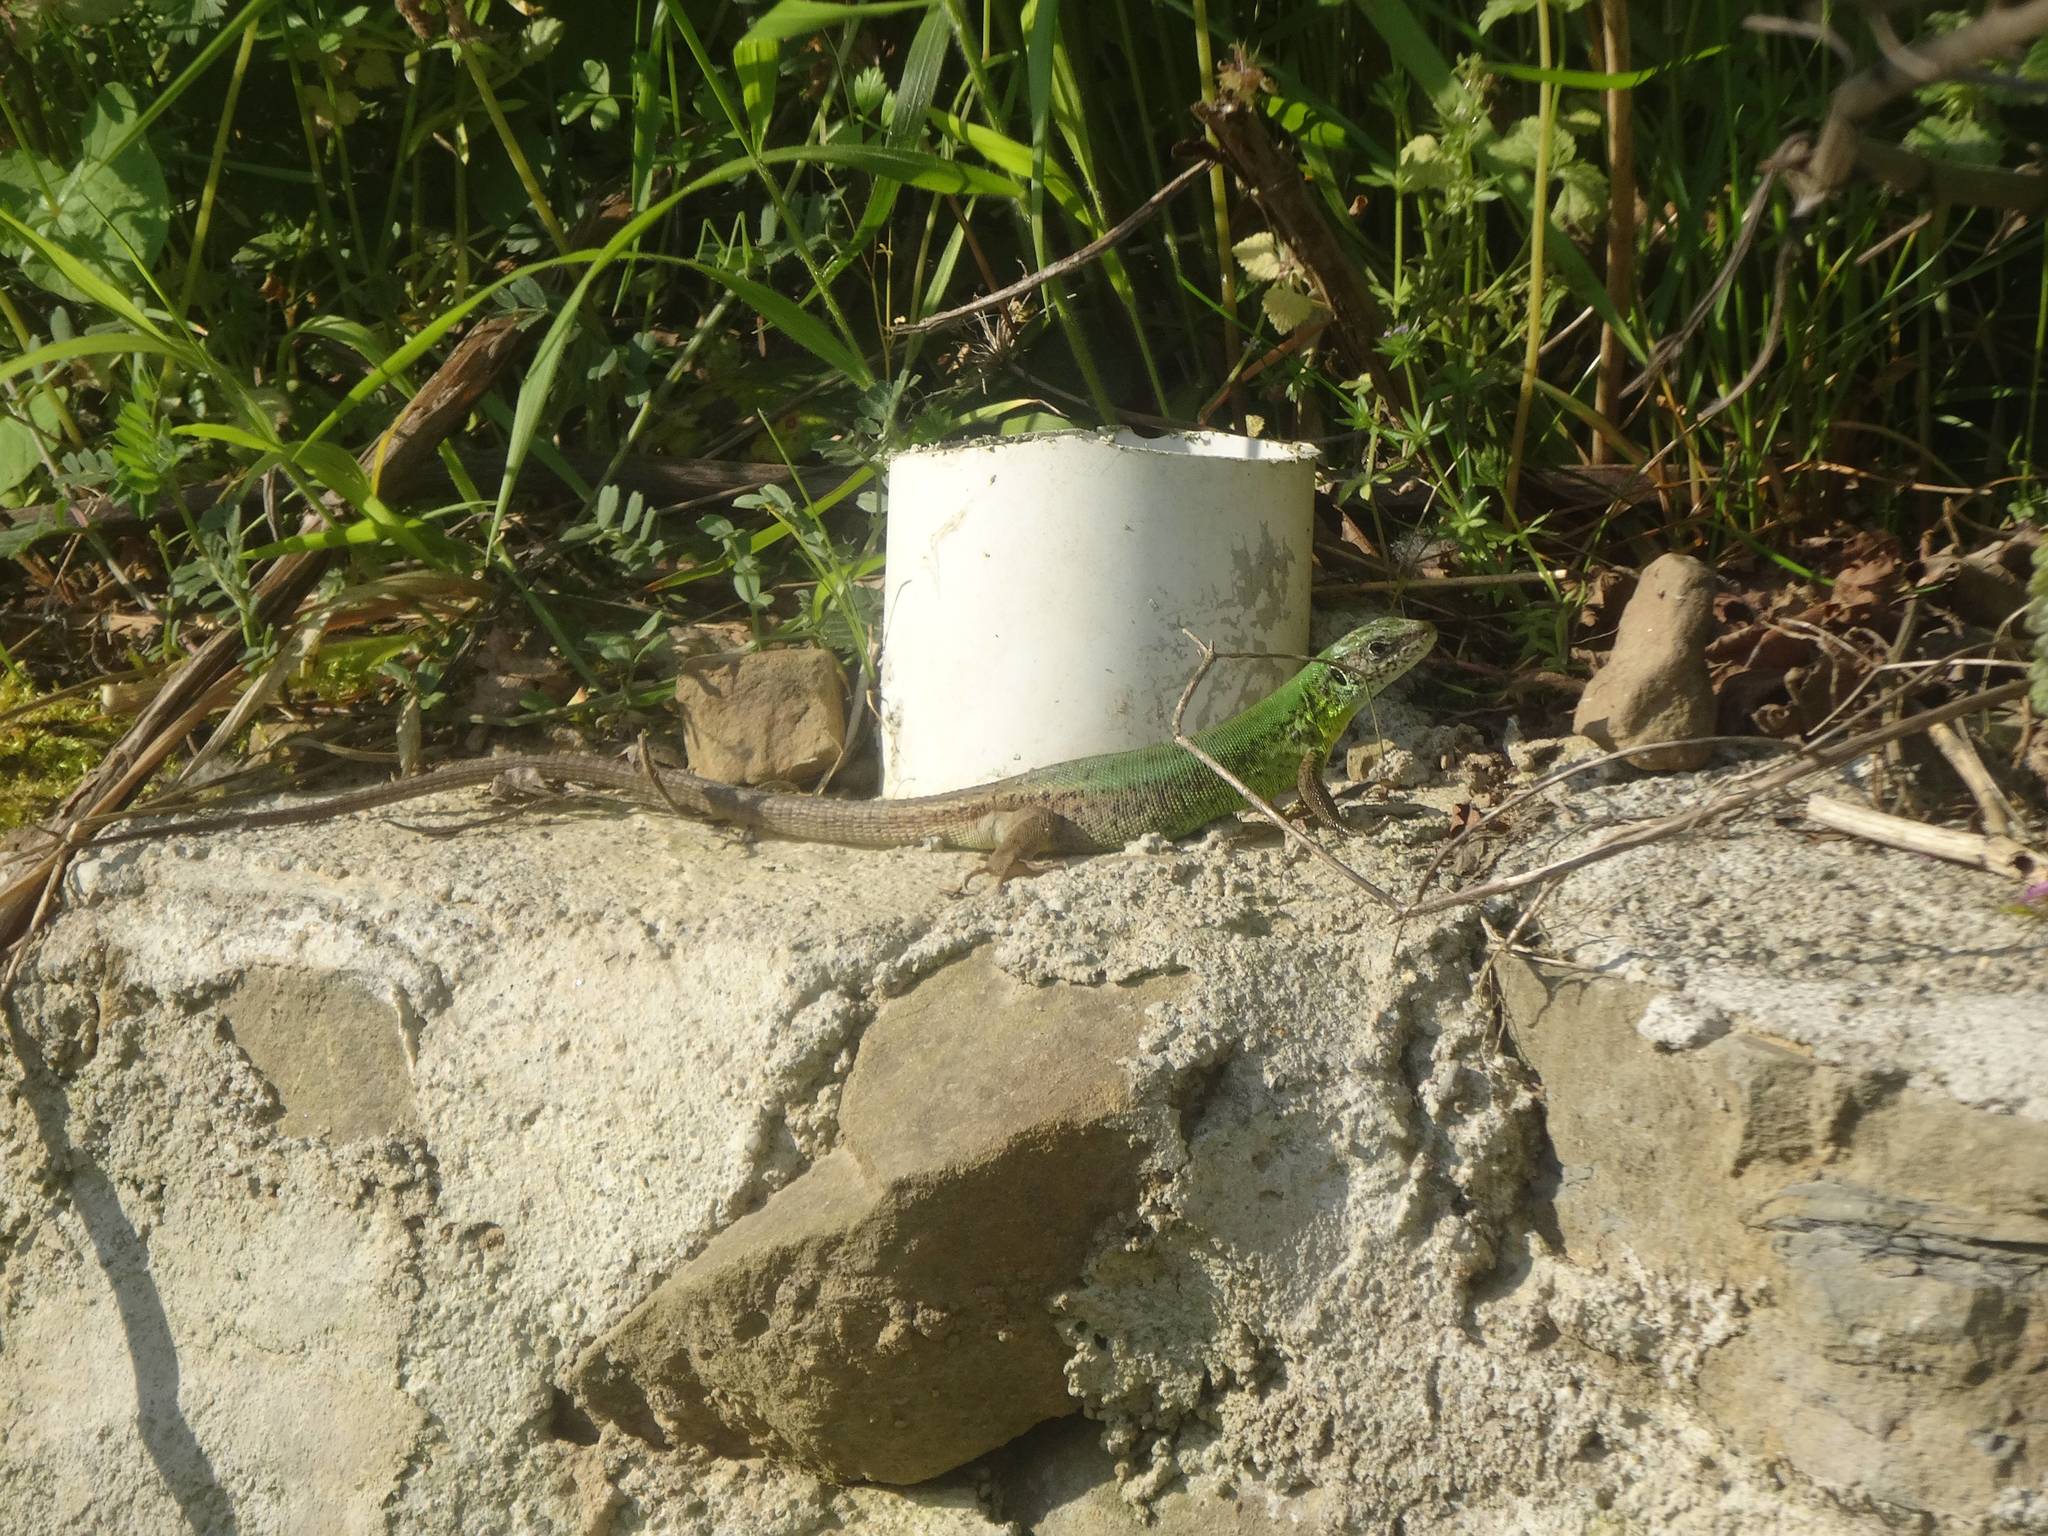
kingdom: Animalia
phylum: Chordata
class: Squamata
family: Lacertidae
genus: Lacerta
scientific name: Lacerta viridis
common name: European green lizard
